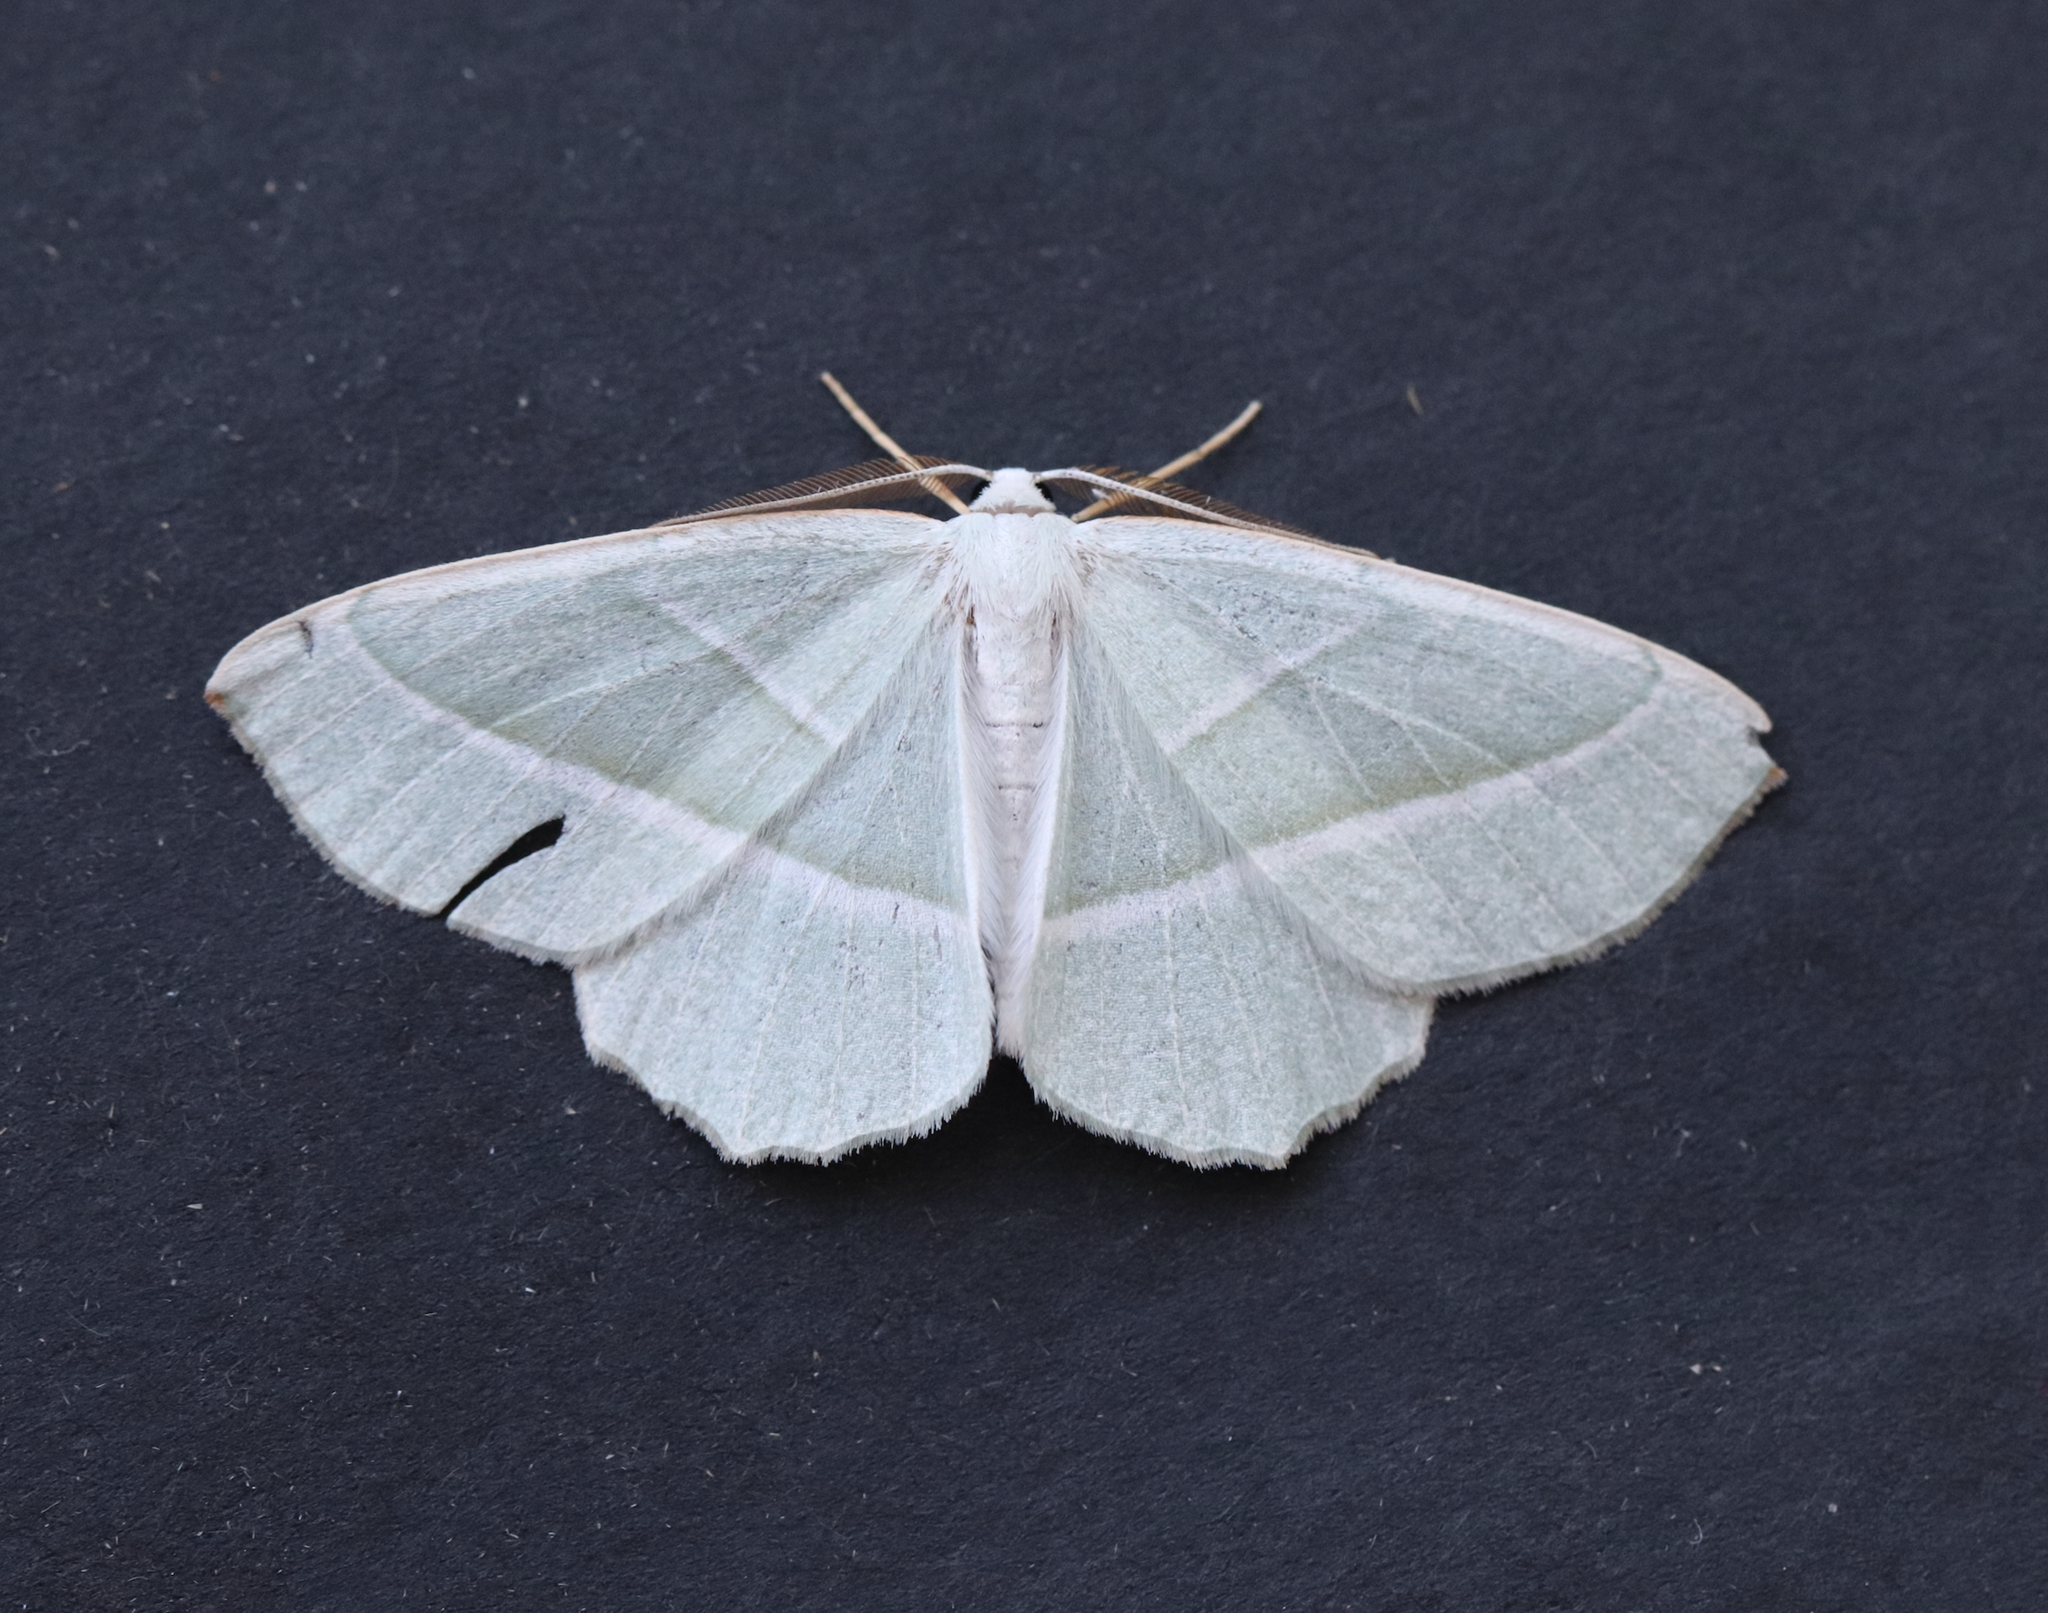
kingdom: Animalia
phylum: Arthropoda
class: Insecta
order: Lepidoptera
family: Geometridae
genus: Campaea
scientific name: Campaea margaritaria
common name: Light emerald
